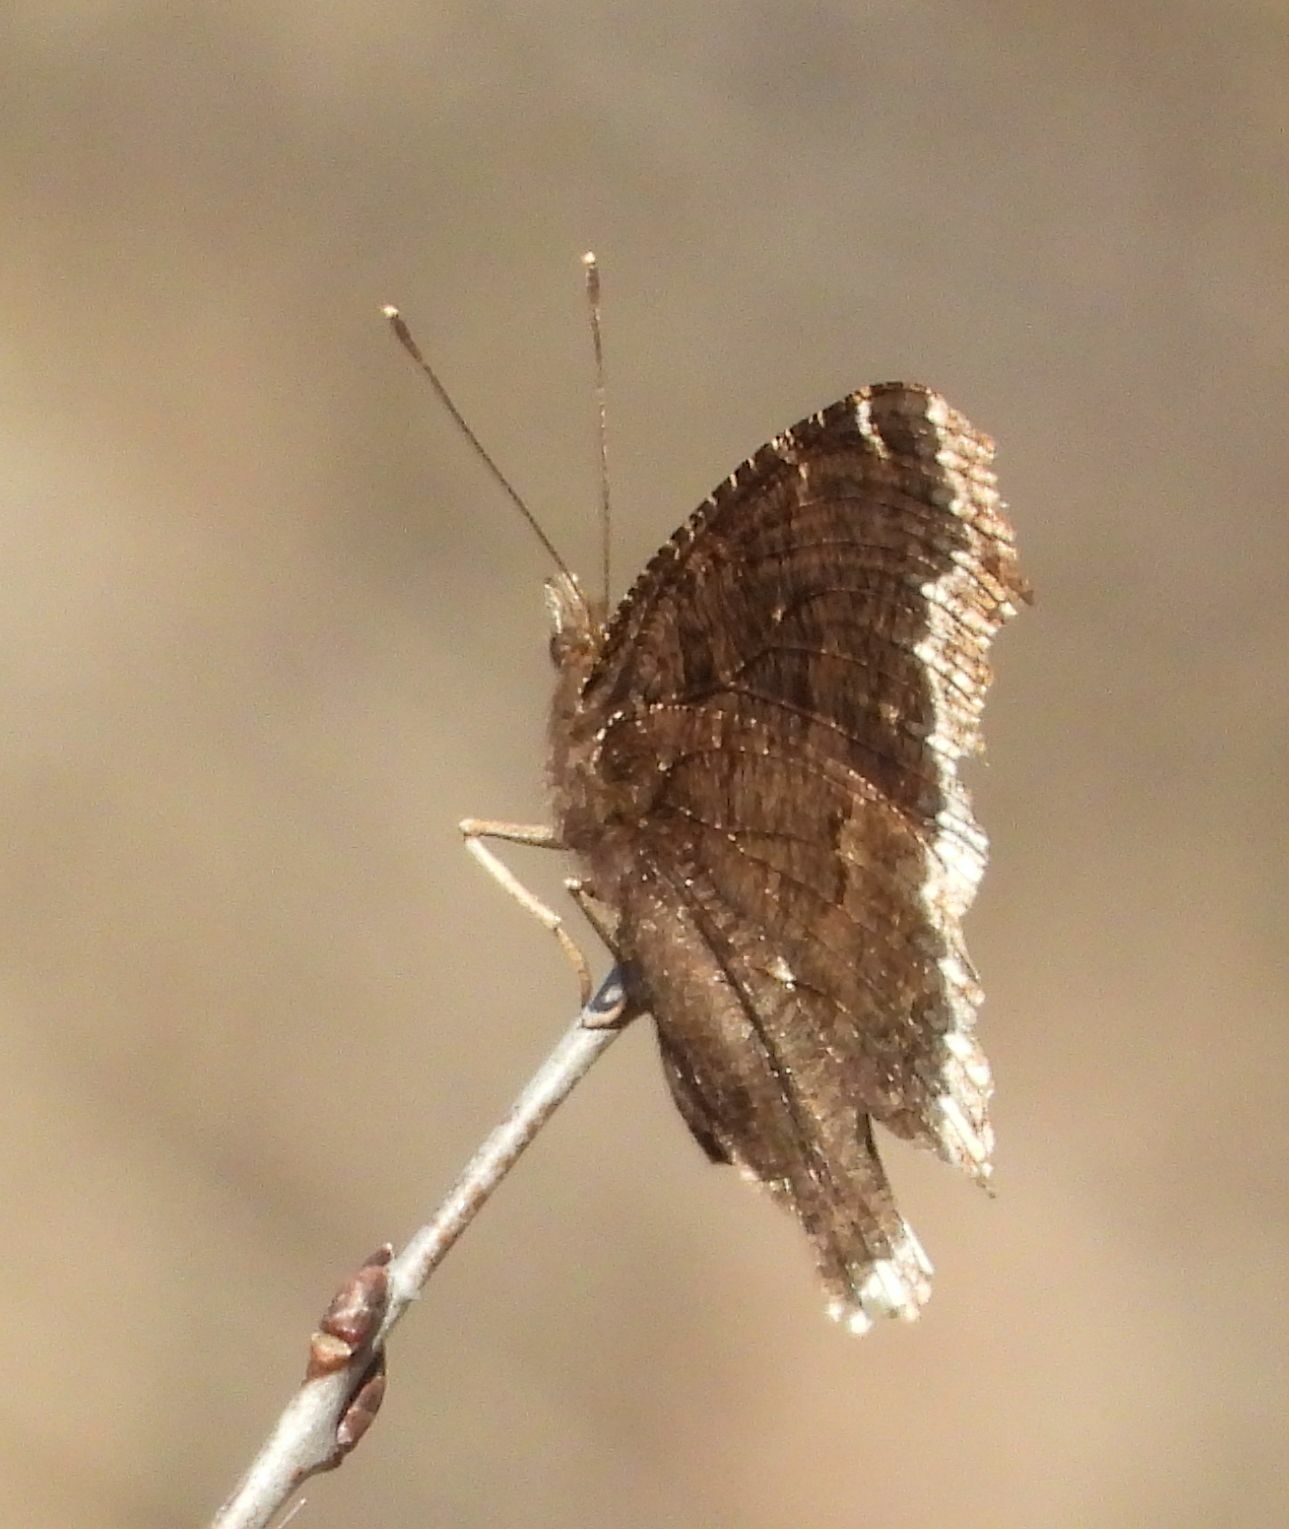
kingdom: Animalia
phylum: Arthropoda
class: Insecta
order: Lepidoptera
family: Nymphalidae
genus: Nymphalis
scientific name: Nymphalis antiopa
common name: Camberwell beauty
